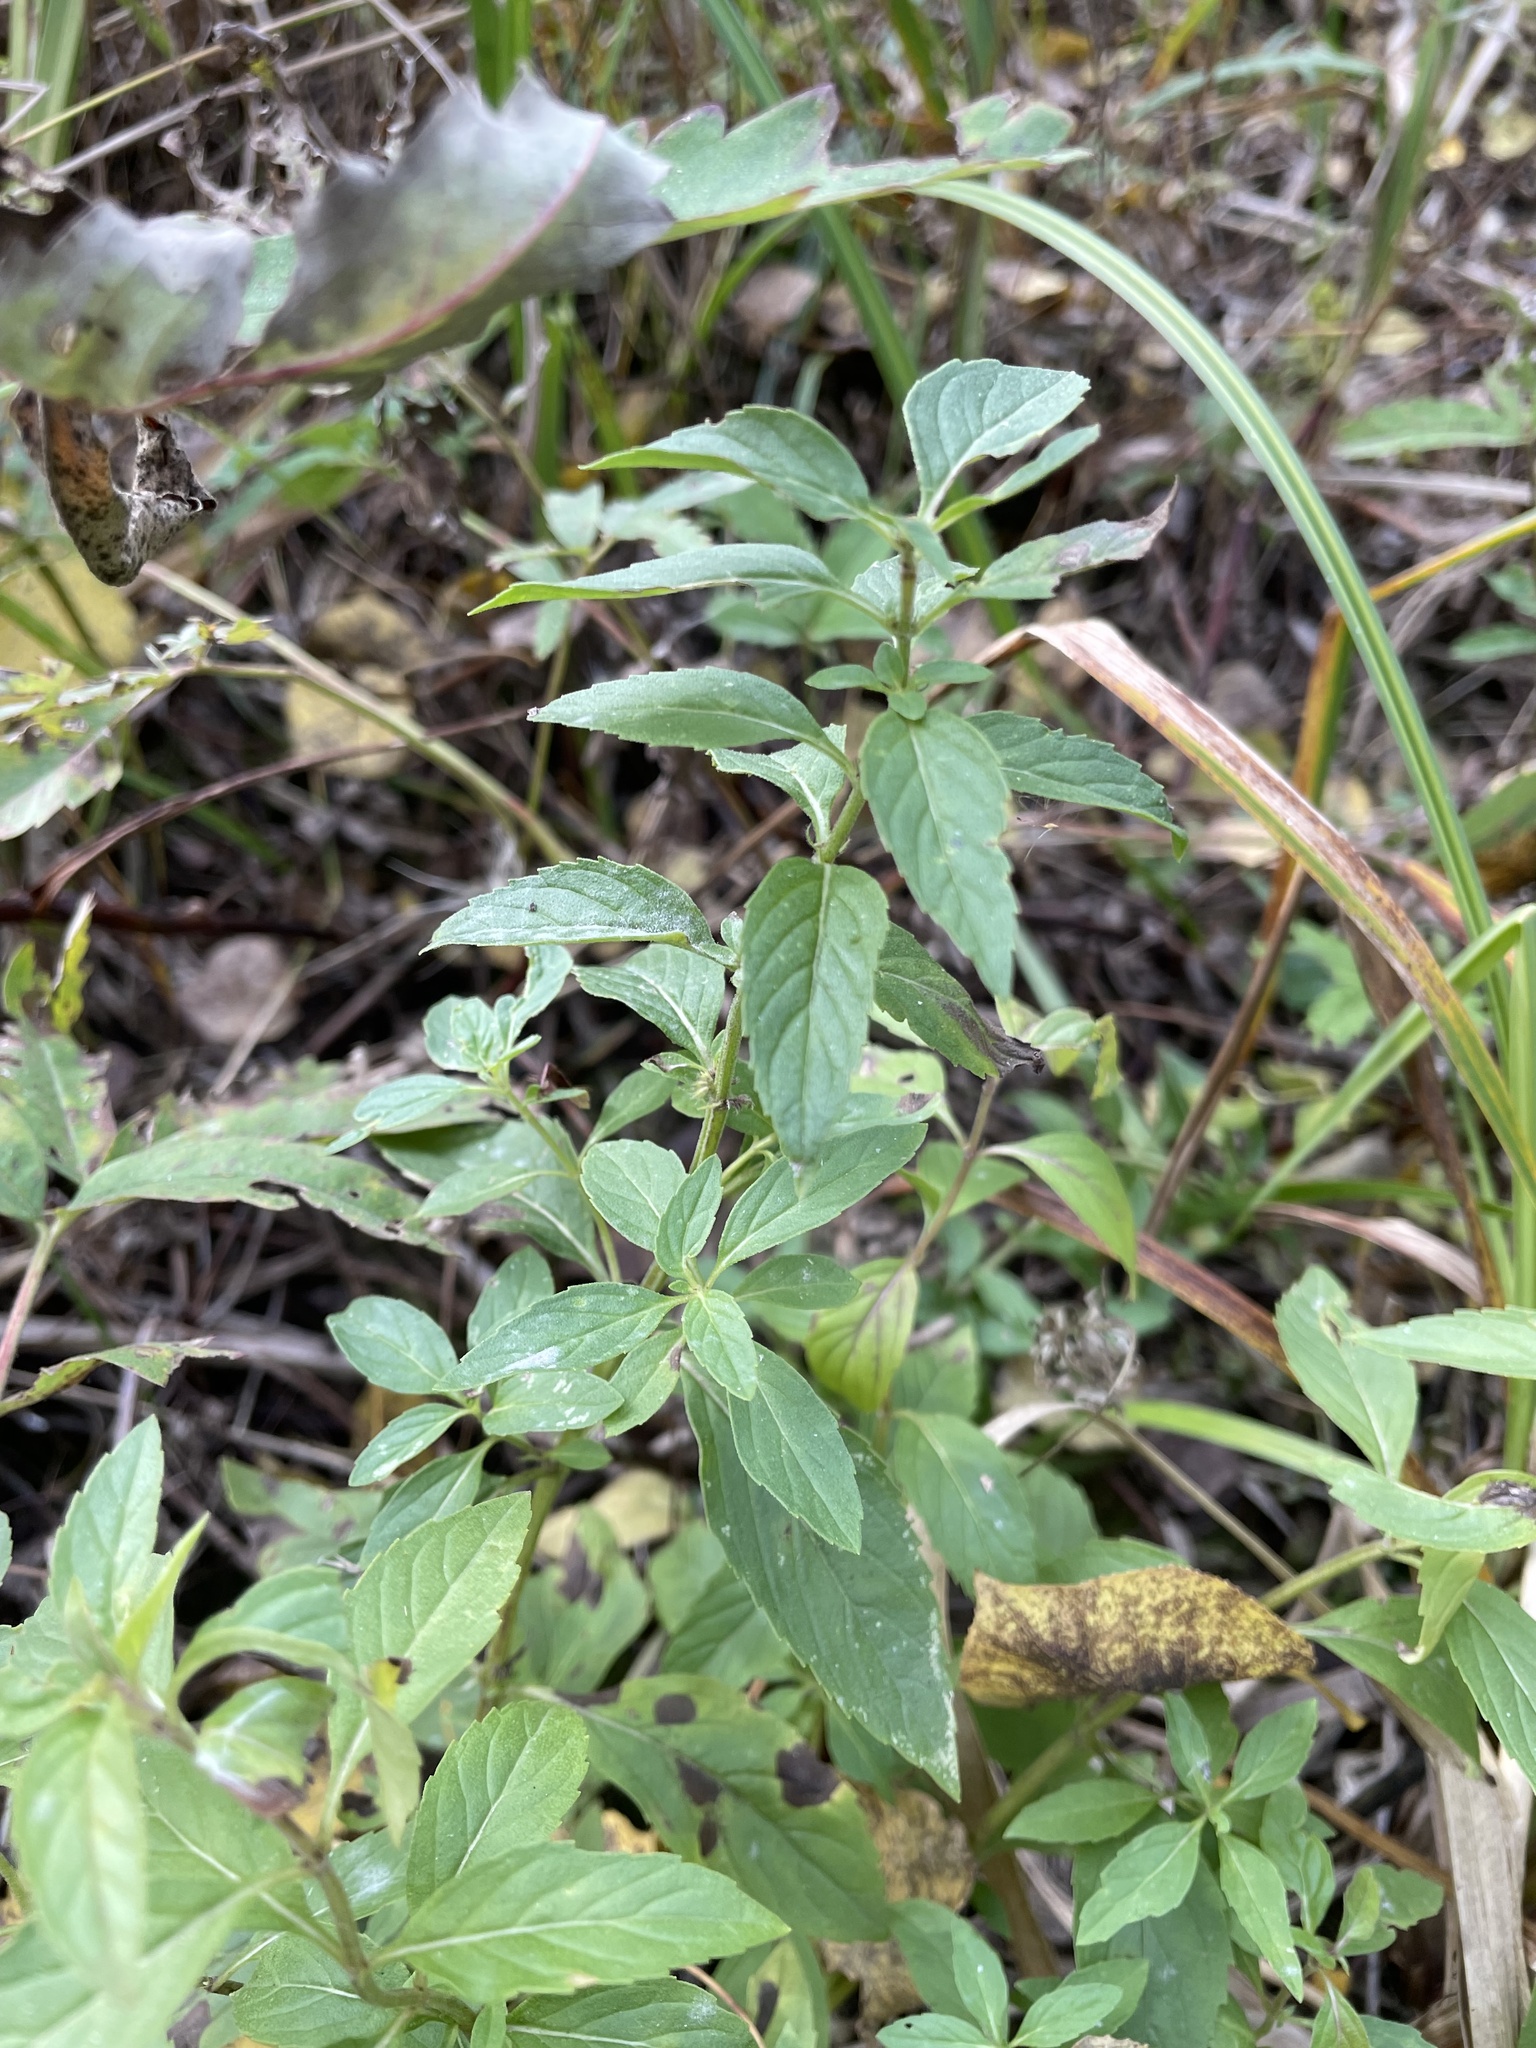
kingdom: Plantae
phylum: Tracheophyta
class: Magnoliopsida
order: Lamiales
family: Lamiaceae
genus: Mentha
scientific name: Mentha canadensis
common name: American corn mint
